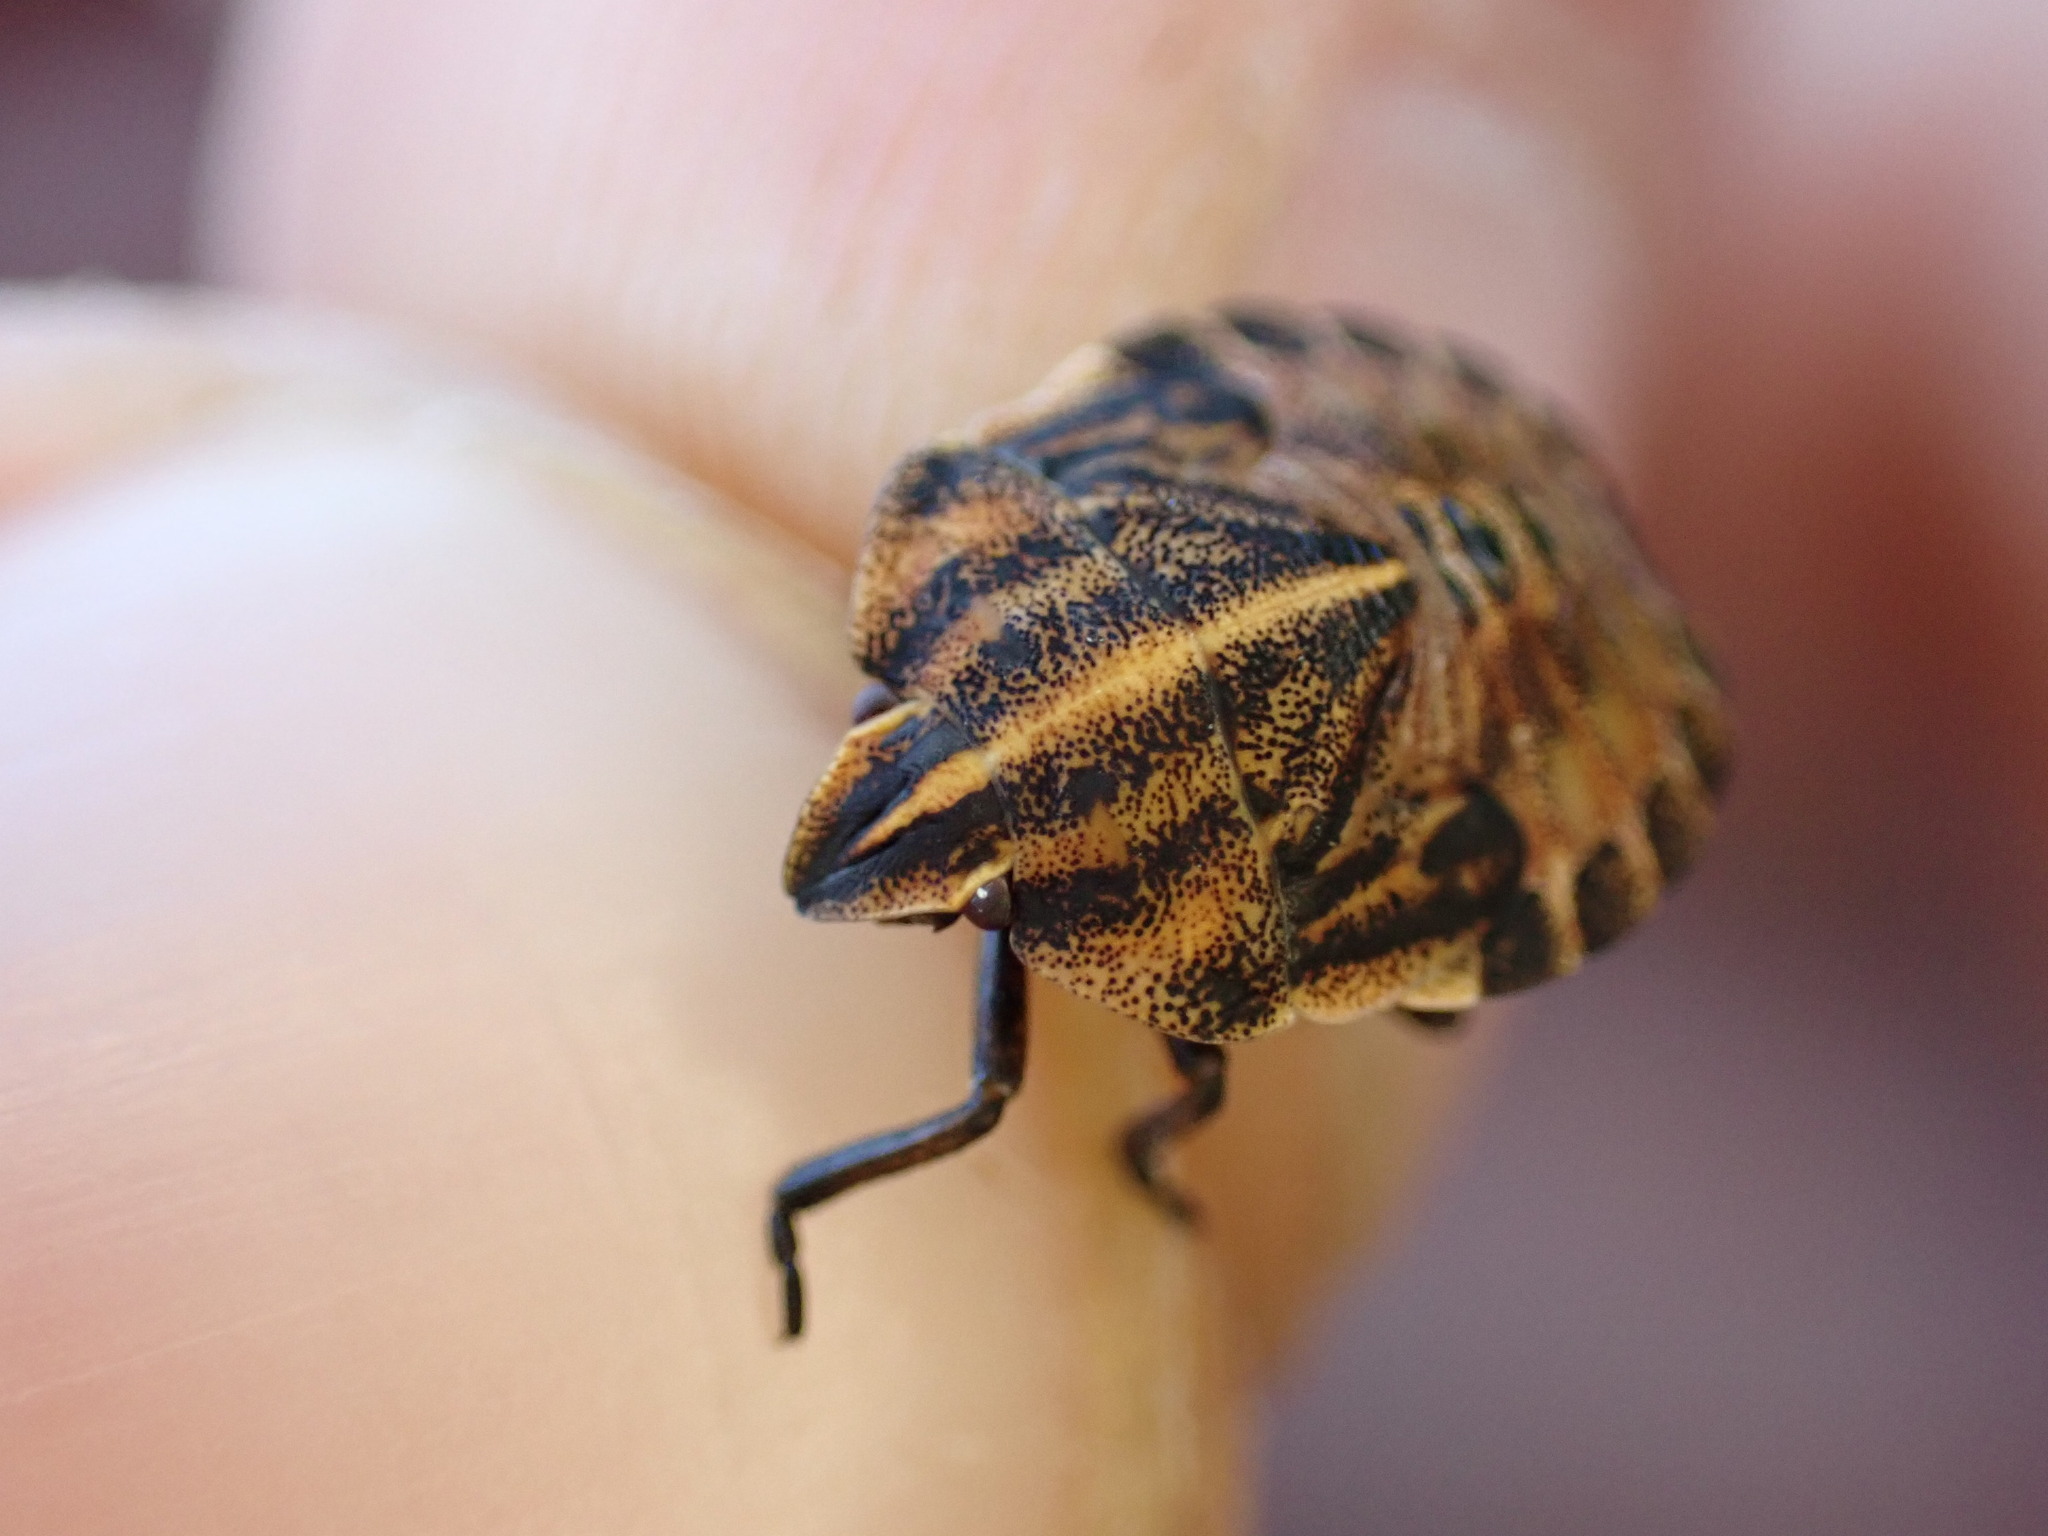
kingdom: Animalia
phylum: Arthropoda
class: Insecta
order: Hemiptera
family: Pentatomidae
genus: Graphosoma
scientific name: Graphosoma italicum
